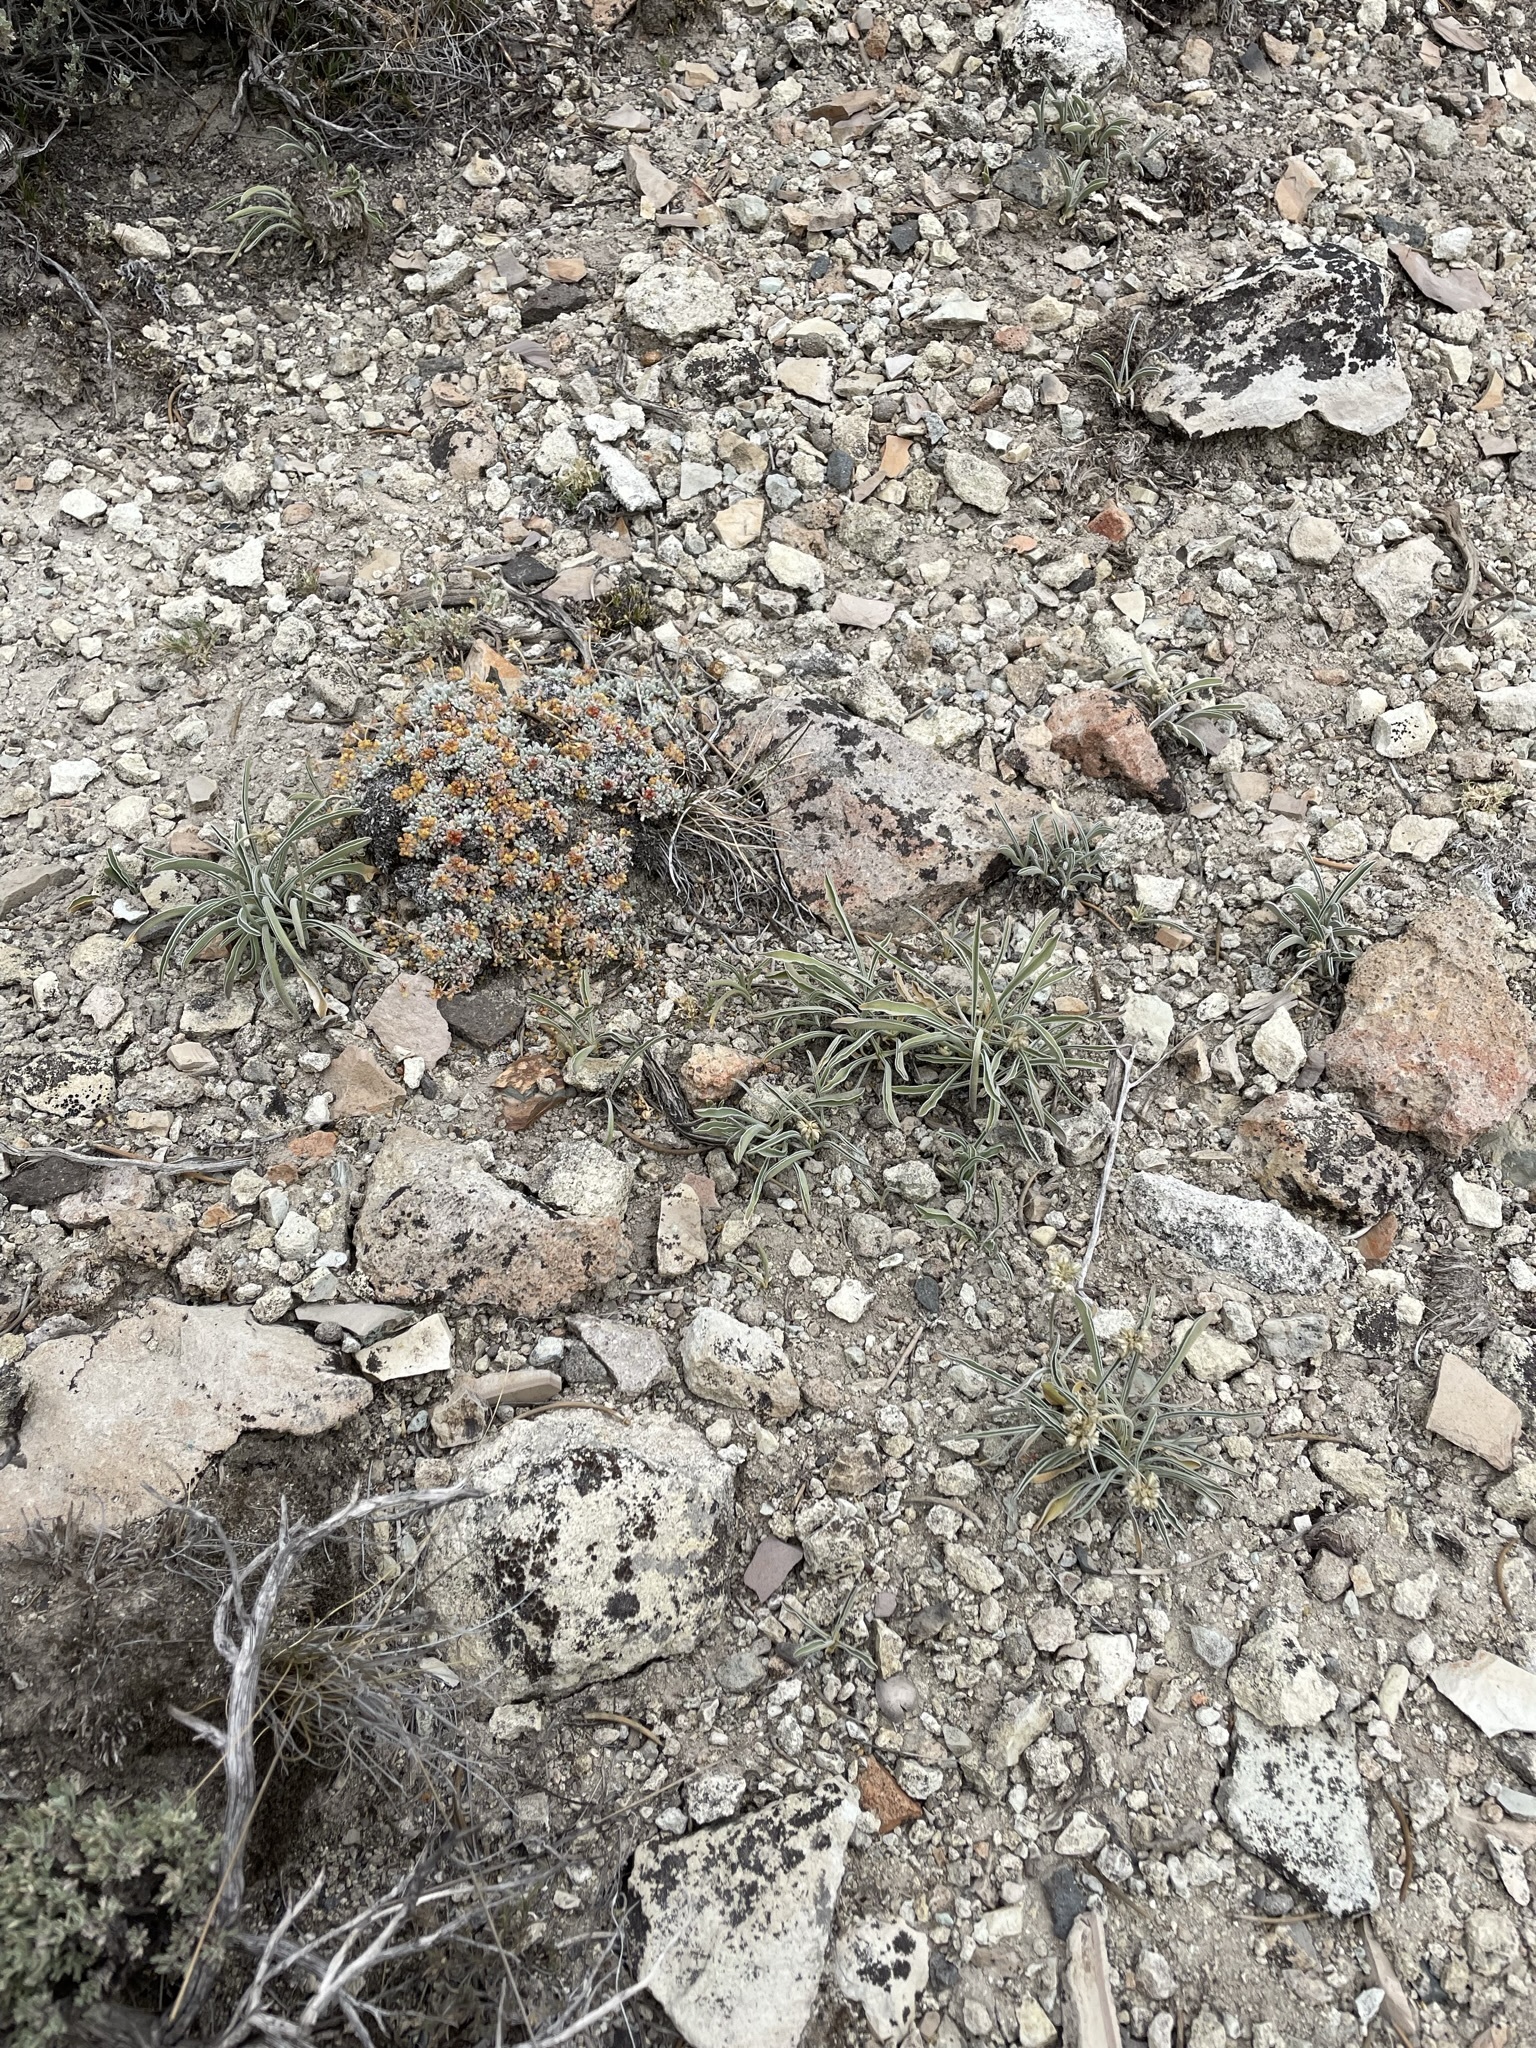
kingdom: Plantae
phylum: Tracheophyta
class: Magnoliopsida
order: Gentianales
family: Gentianaceae
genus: Frasera
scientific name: Frasera albicaulis
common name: Cusick's frasera
